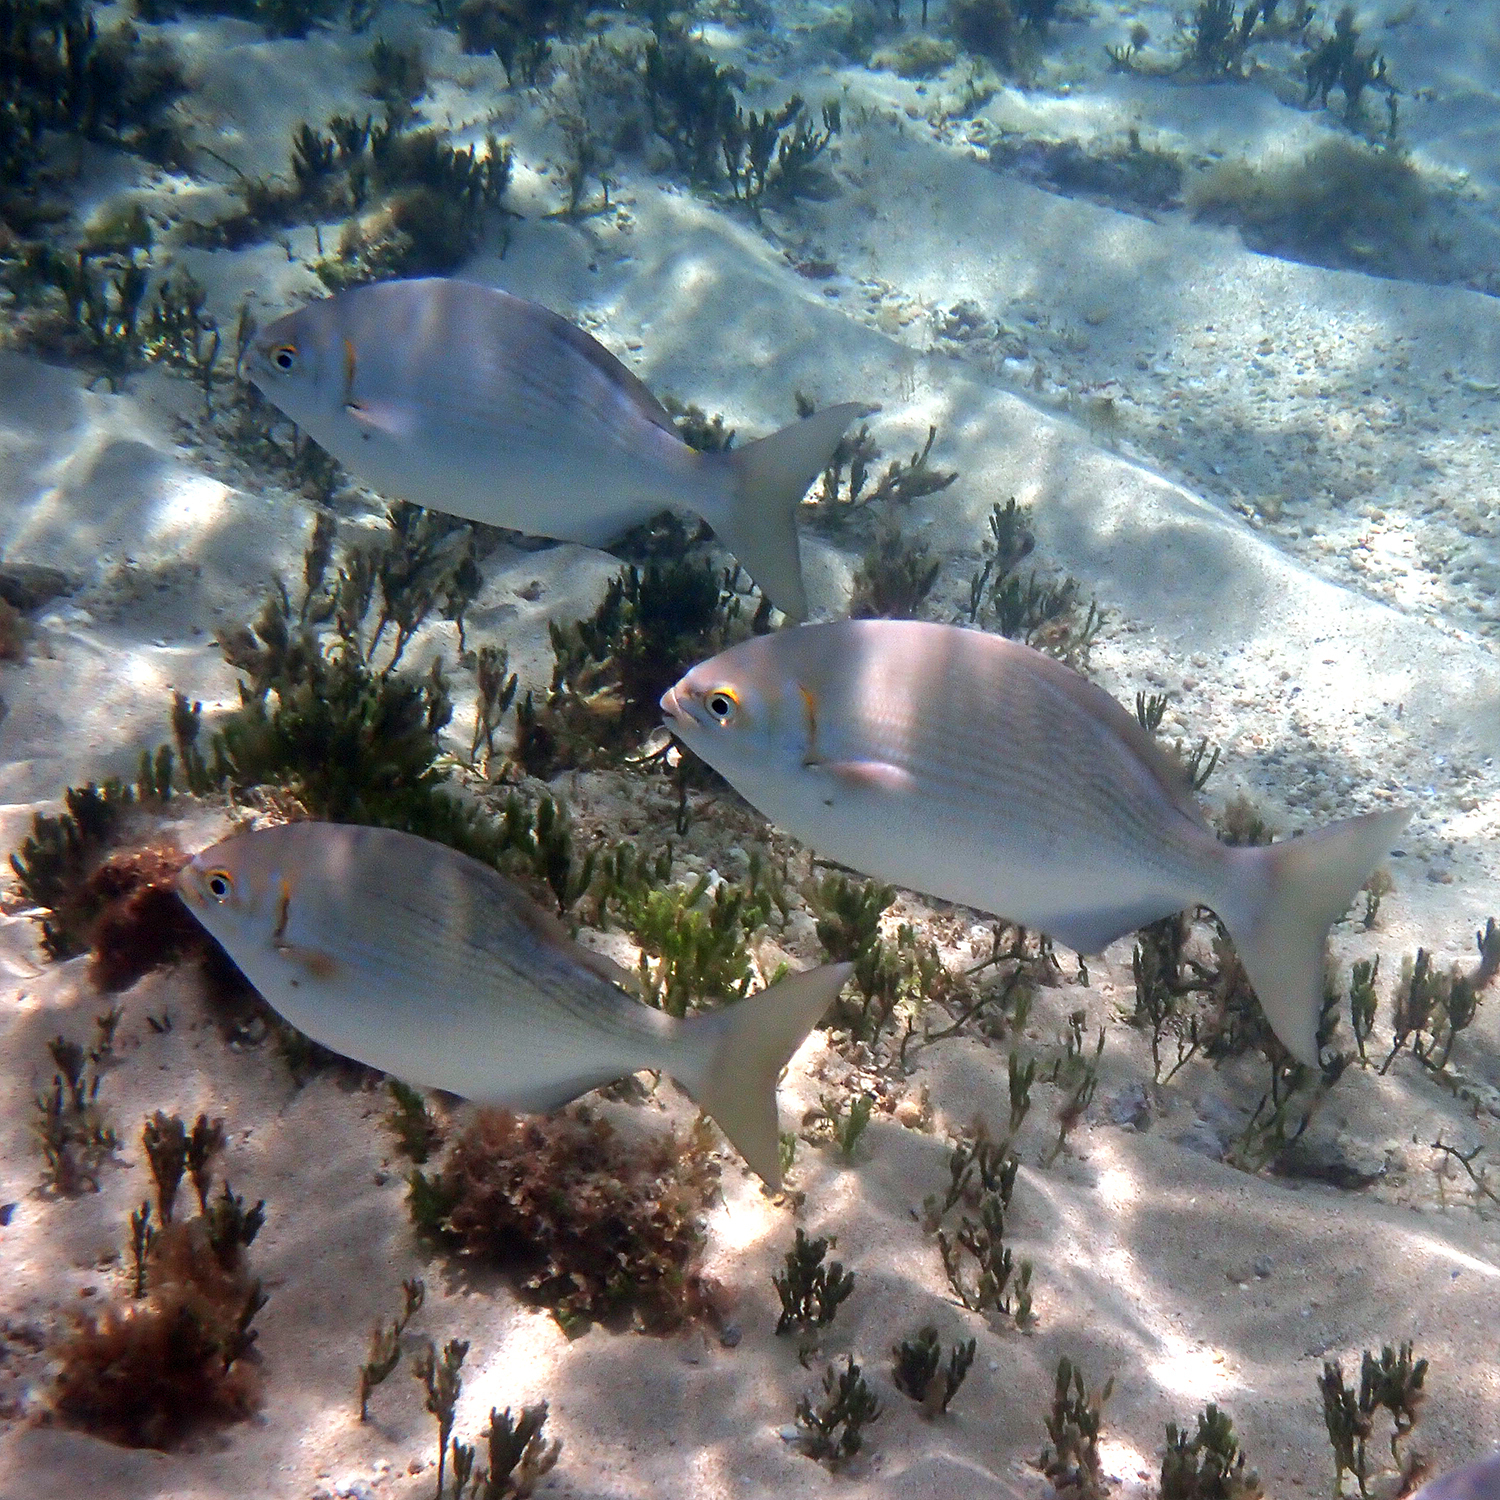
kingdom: Animalia
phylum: Chordata
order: Perciformes
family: Kyphosidae
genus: Kyphosus
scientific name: Kyphosus vaigiensis
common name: Brassy chub
